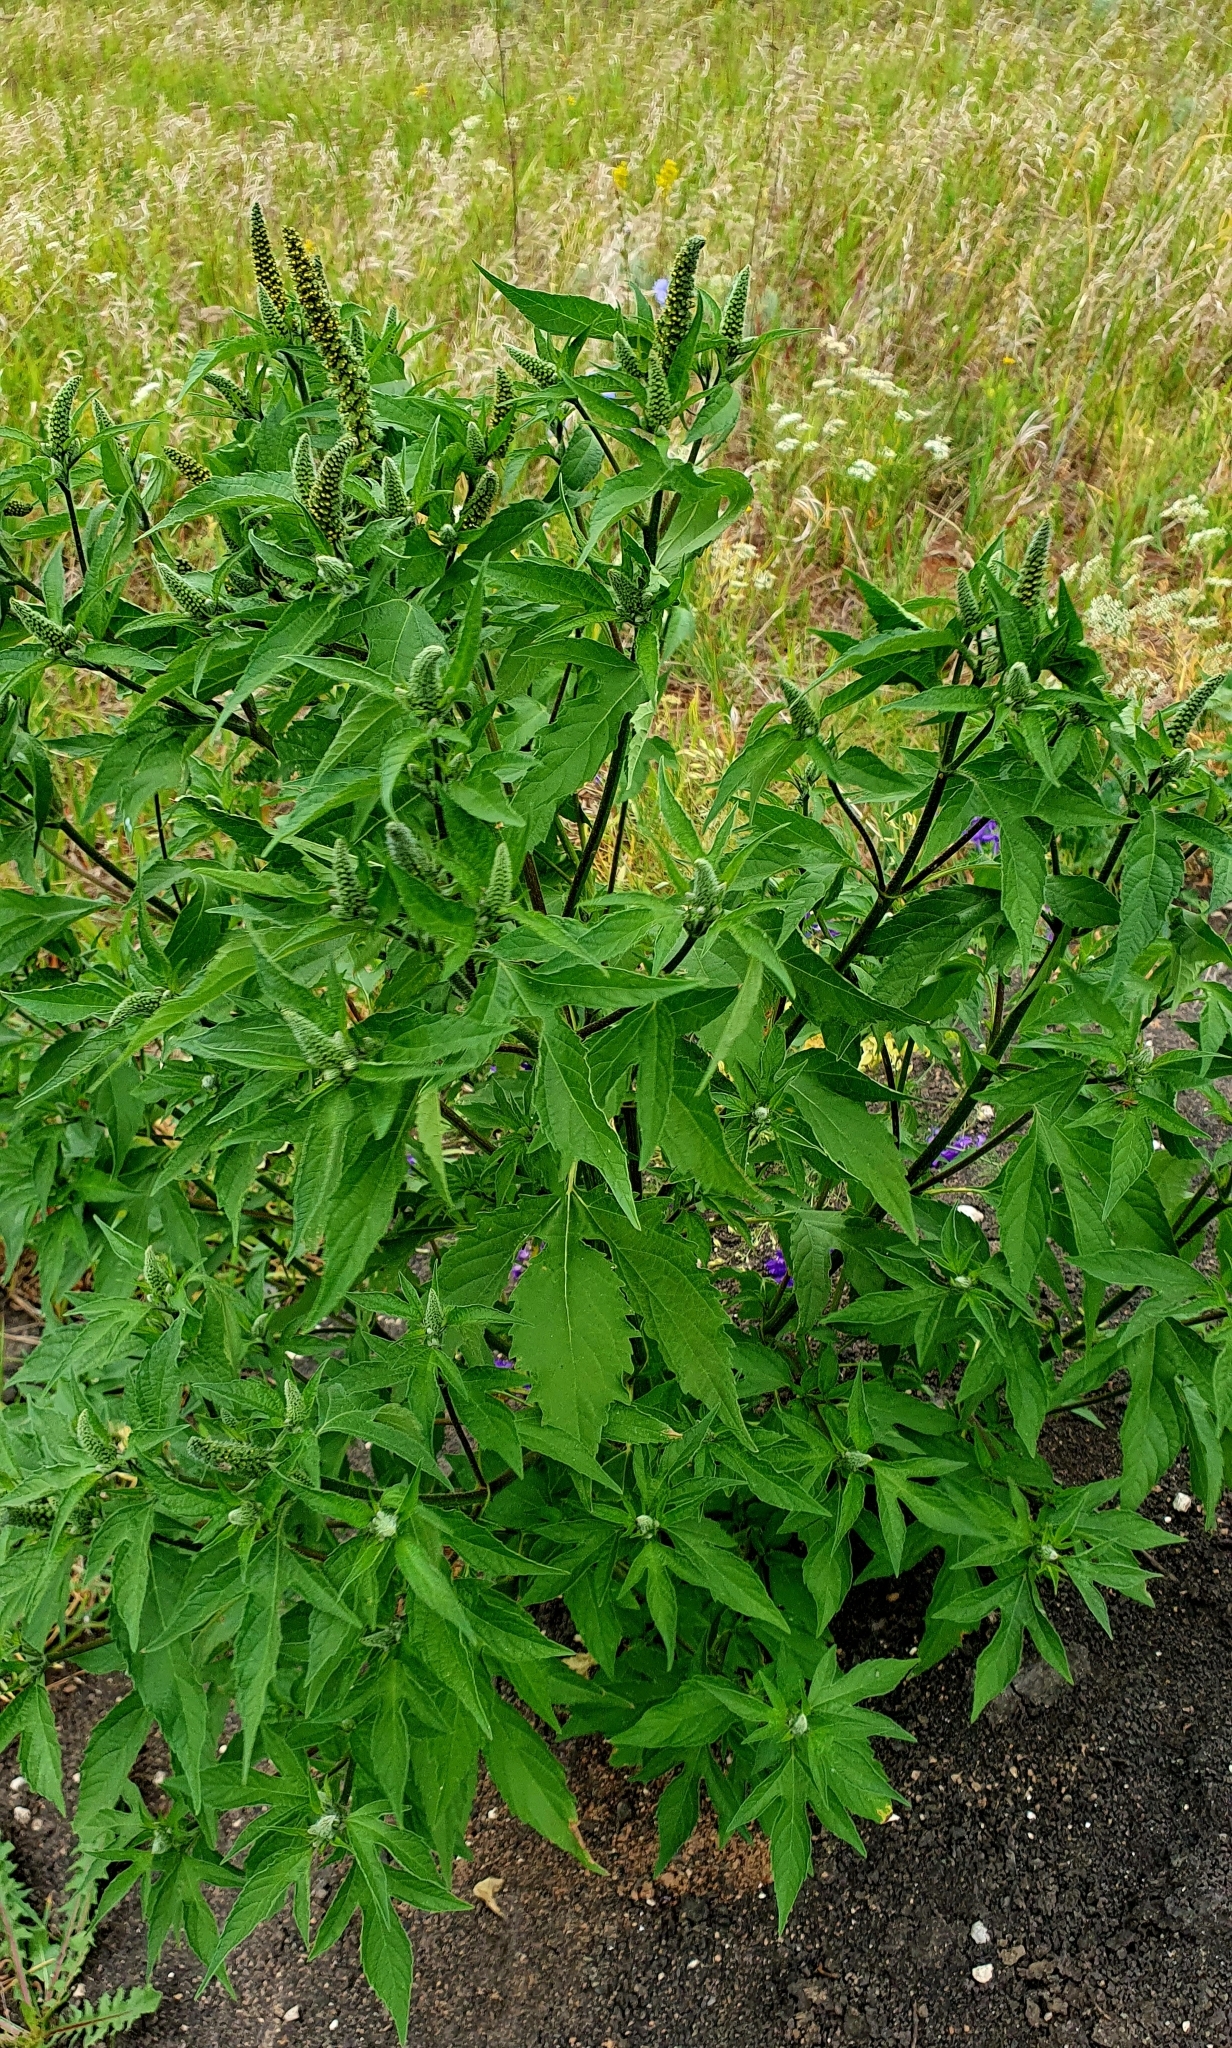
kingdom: Plantae
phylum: Tracheophyta
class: Magnoliopsida
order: Asterales
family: Asteraceae
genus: Ambrosia
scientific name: Ambrosia trifida
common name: Giant ragweed
